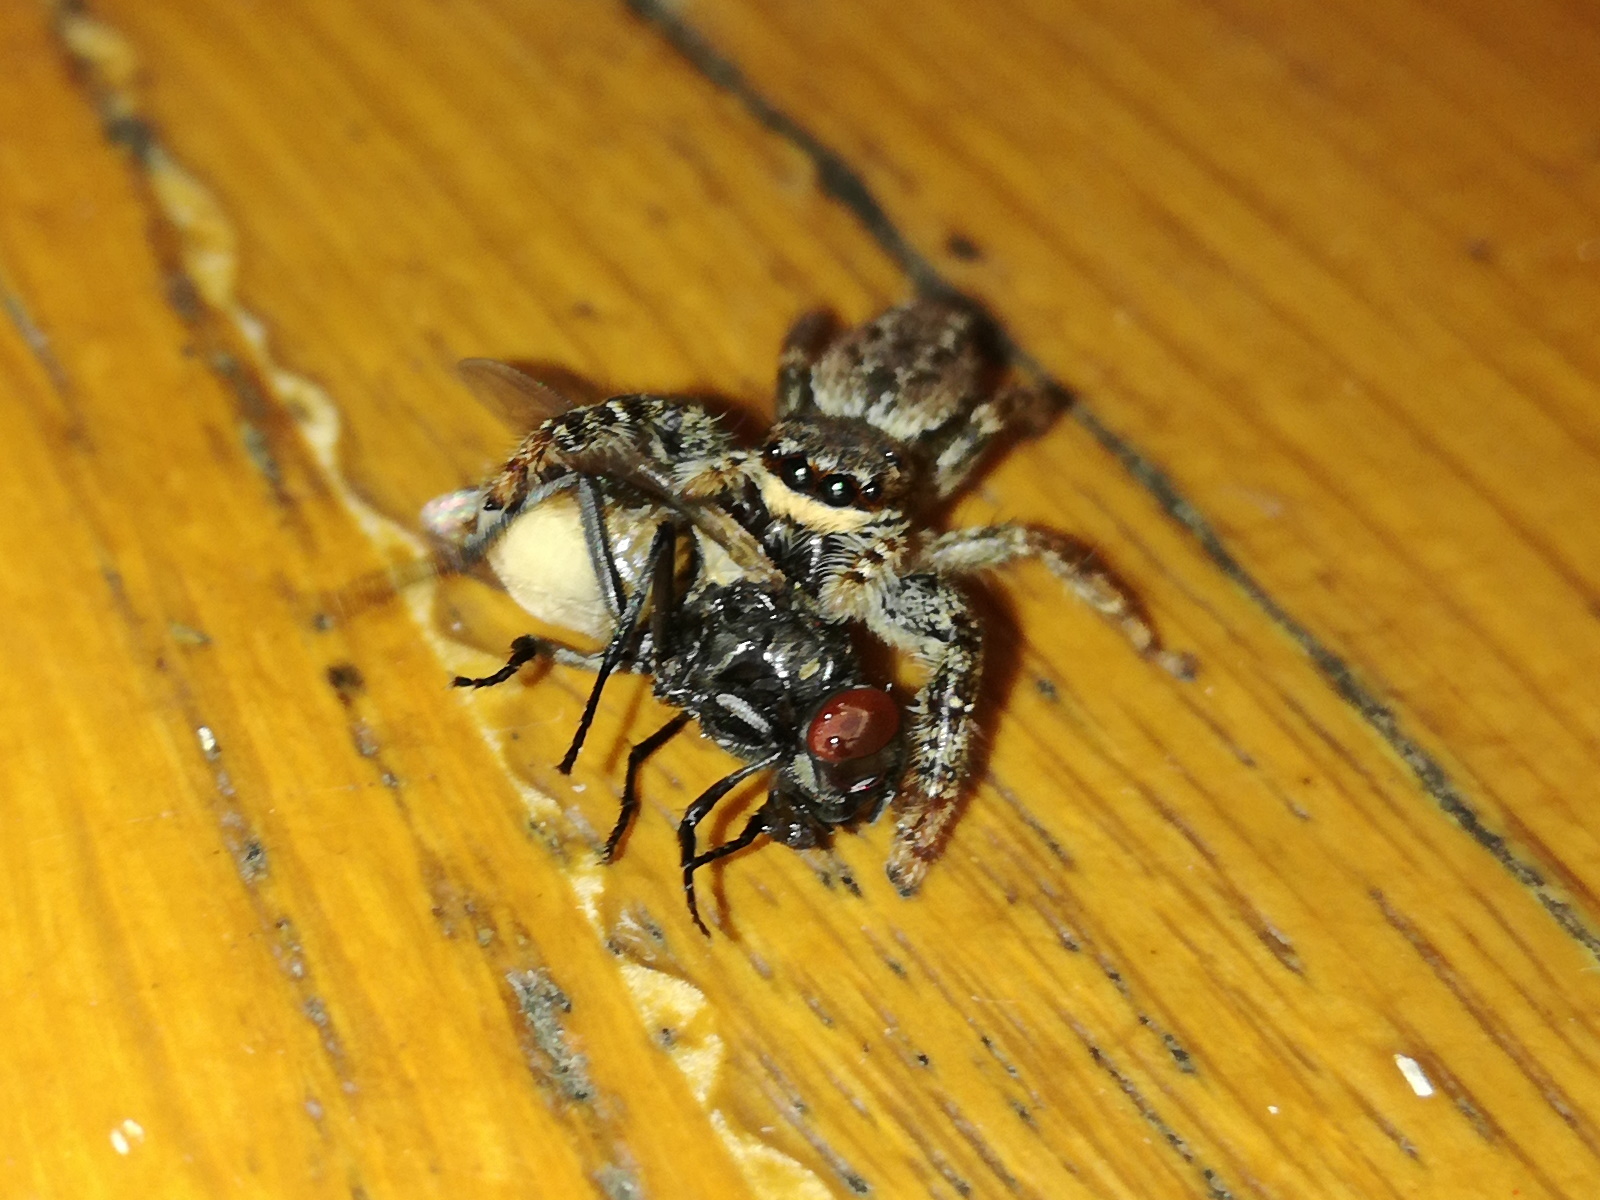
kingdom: Animalia
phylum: Arthropoda
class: Arachnida
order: Araneae
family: Salticidae
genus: Marpissa
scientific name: Marpissa muscosa
